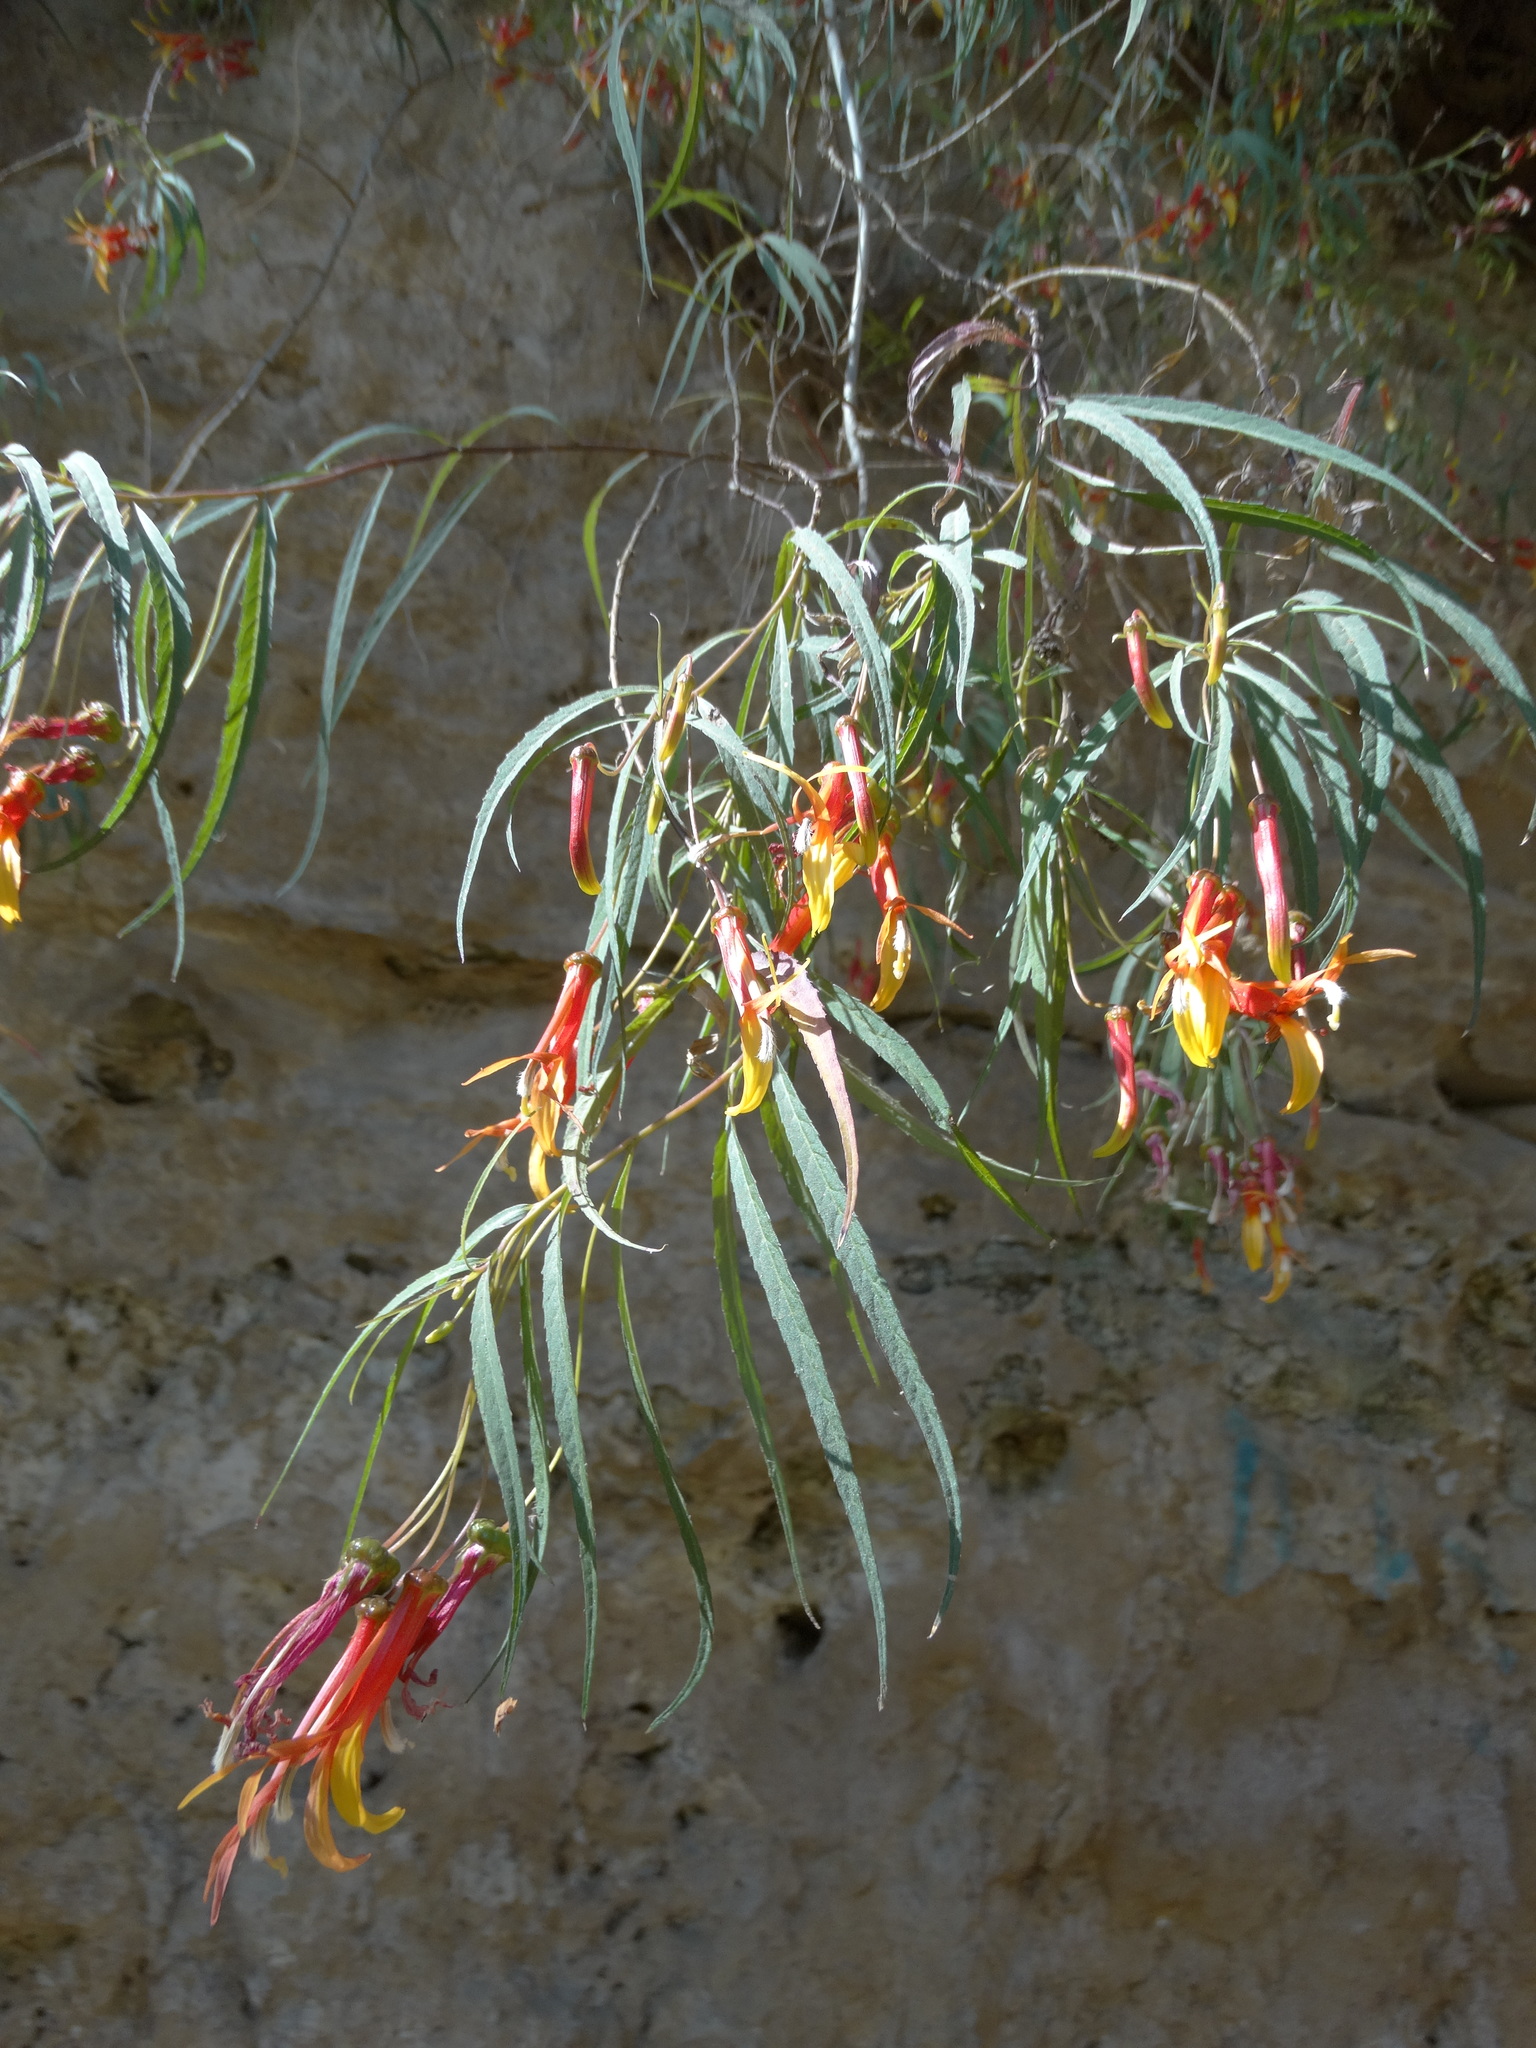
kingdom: Plantae
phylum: Tracheophyta
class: Magnoliopsida
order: Asterales
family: Campanulaceae
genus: Lobelia
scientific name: Lobelia laxiflora
